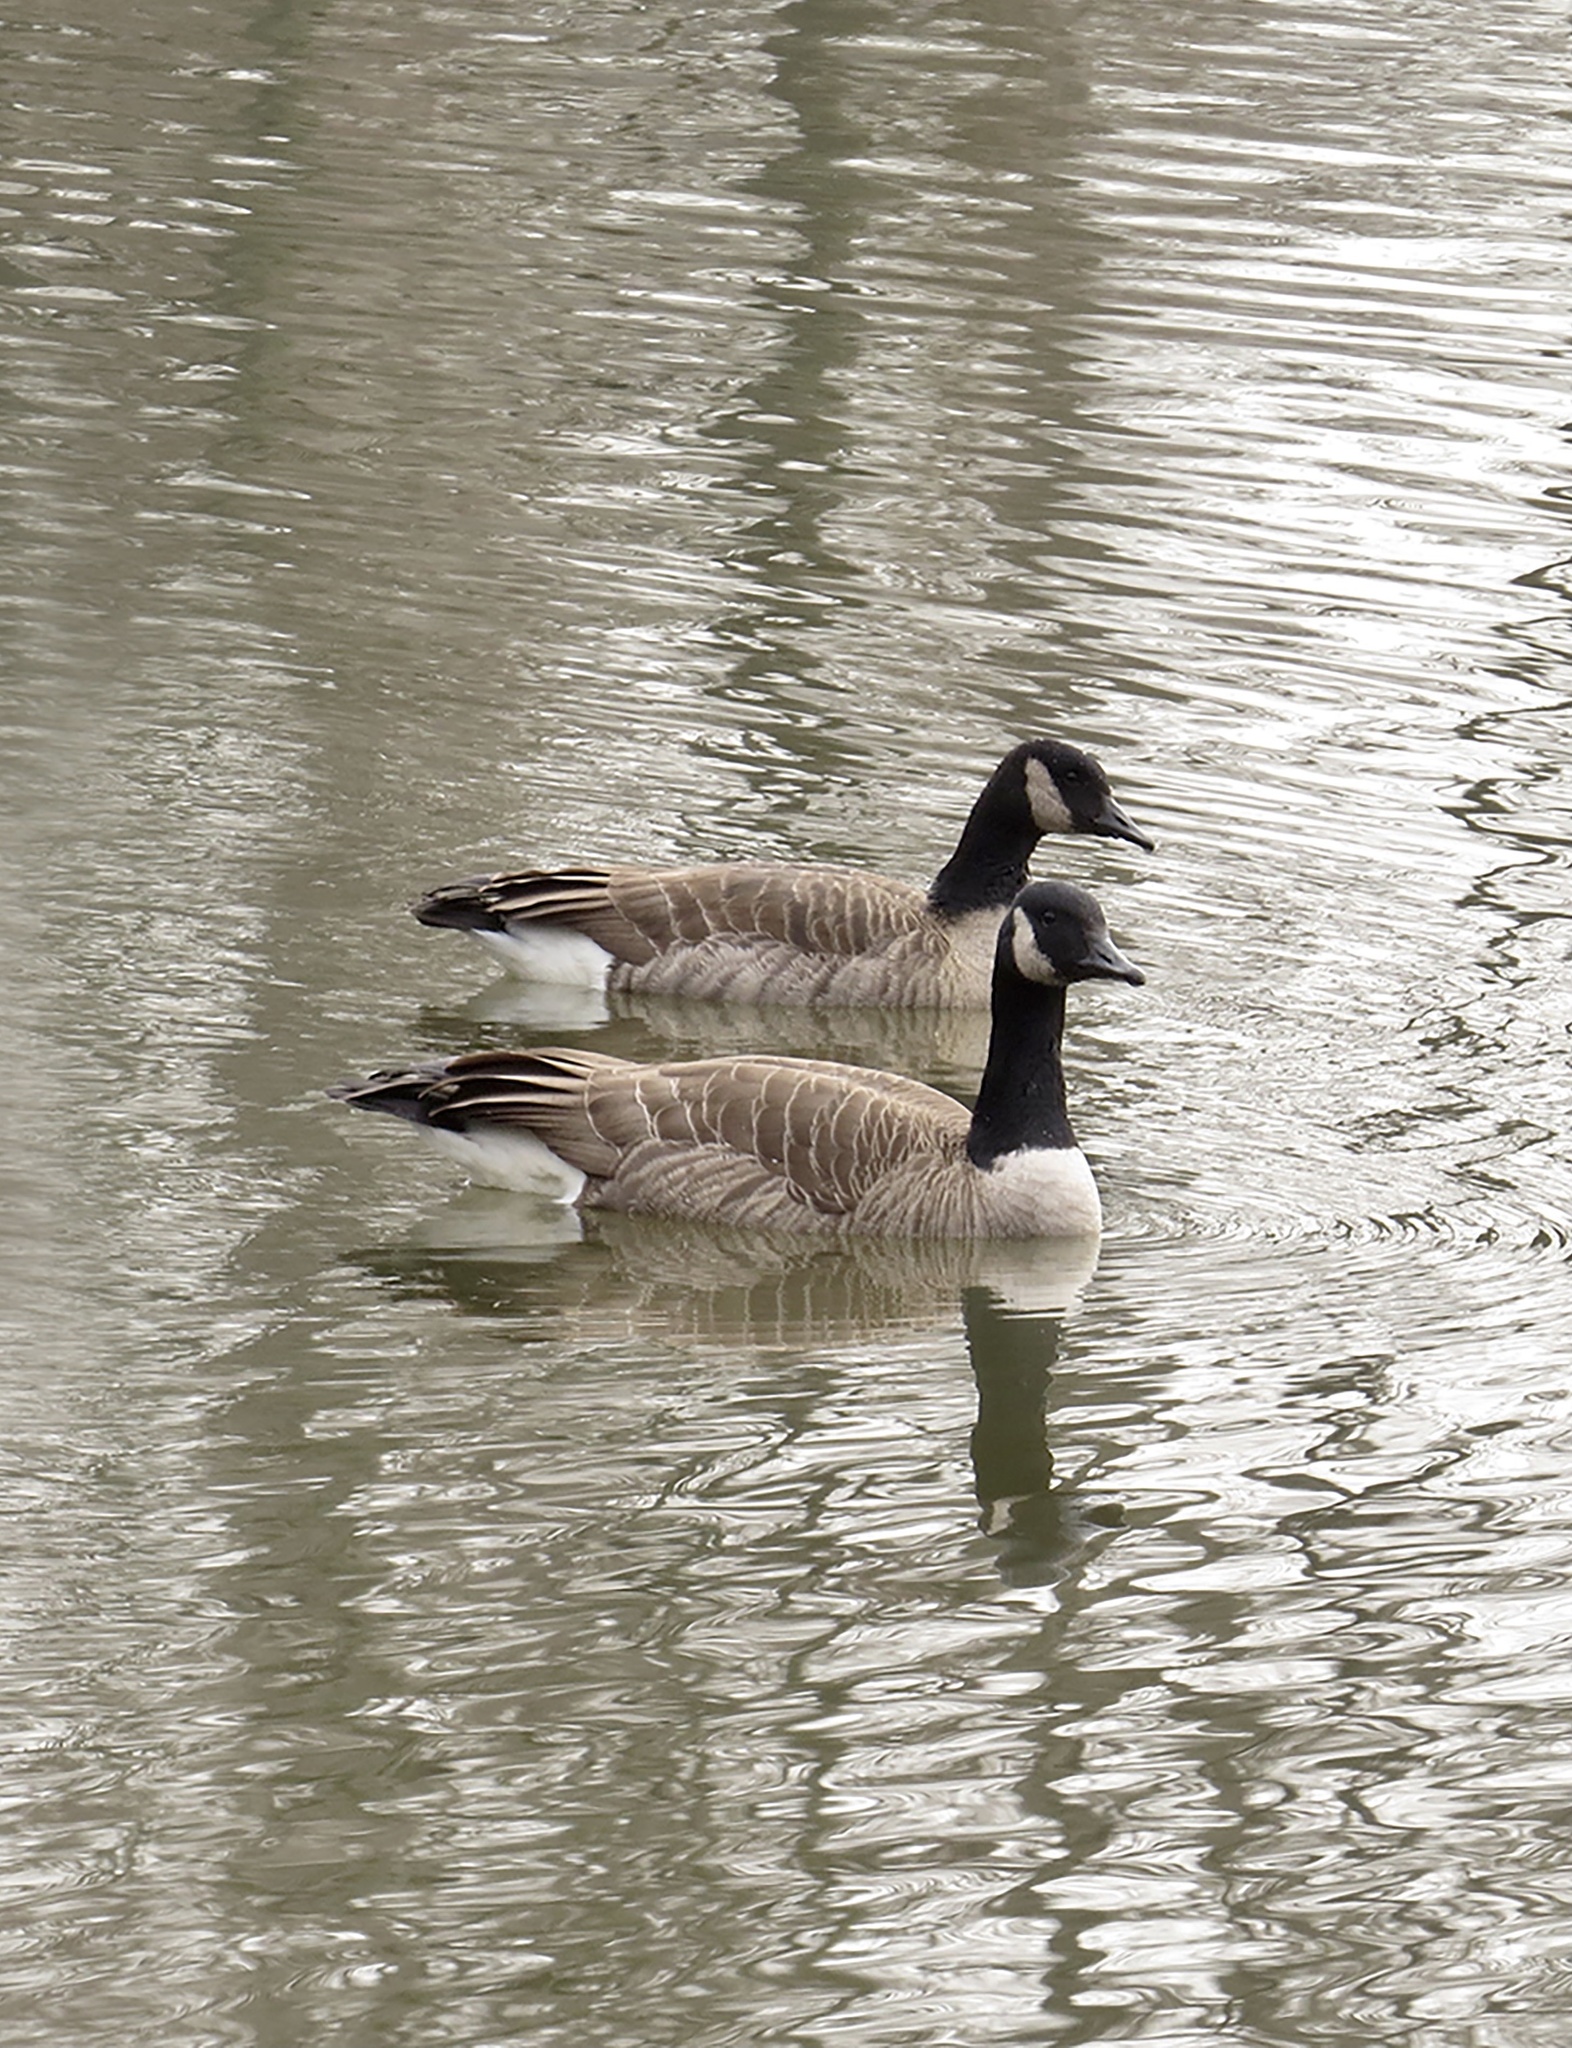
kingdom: Animalia
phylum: Chordata
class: Aves
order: Anseriformes
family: Anatidae
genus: Branta
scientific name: Branta canadensis
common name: Canada goose
